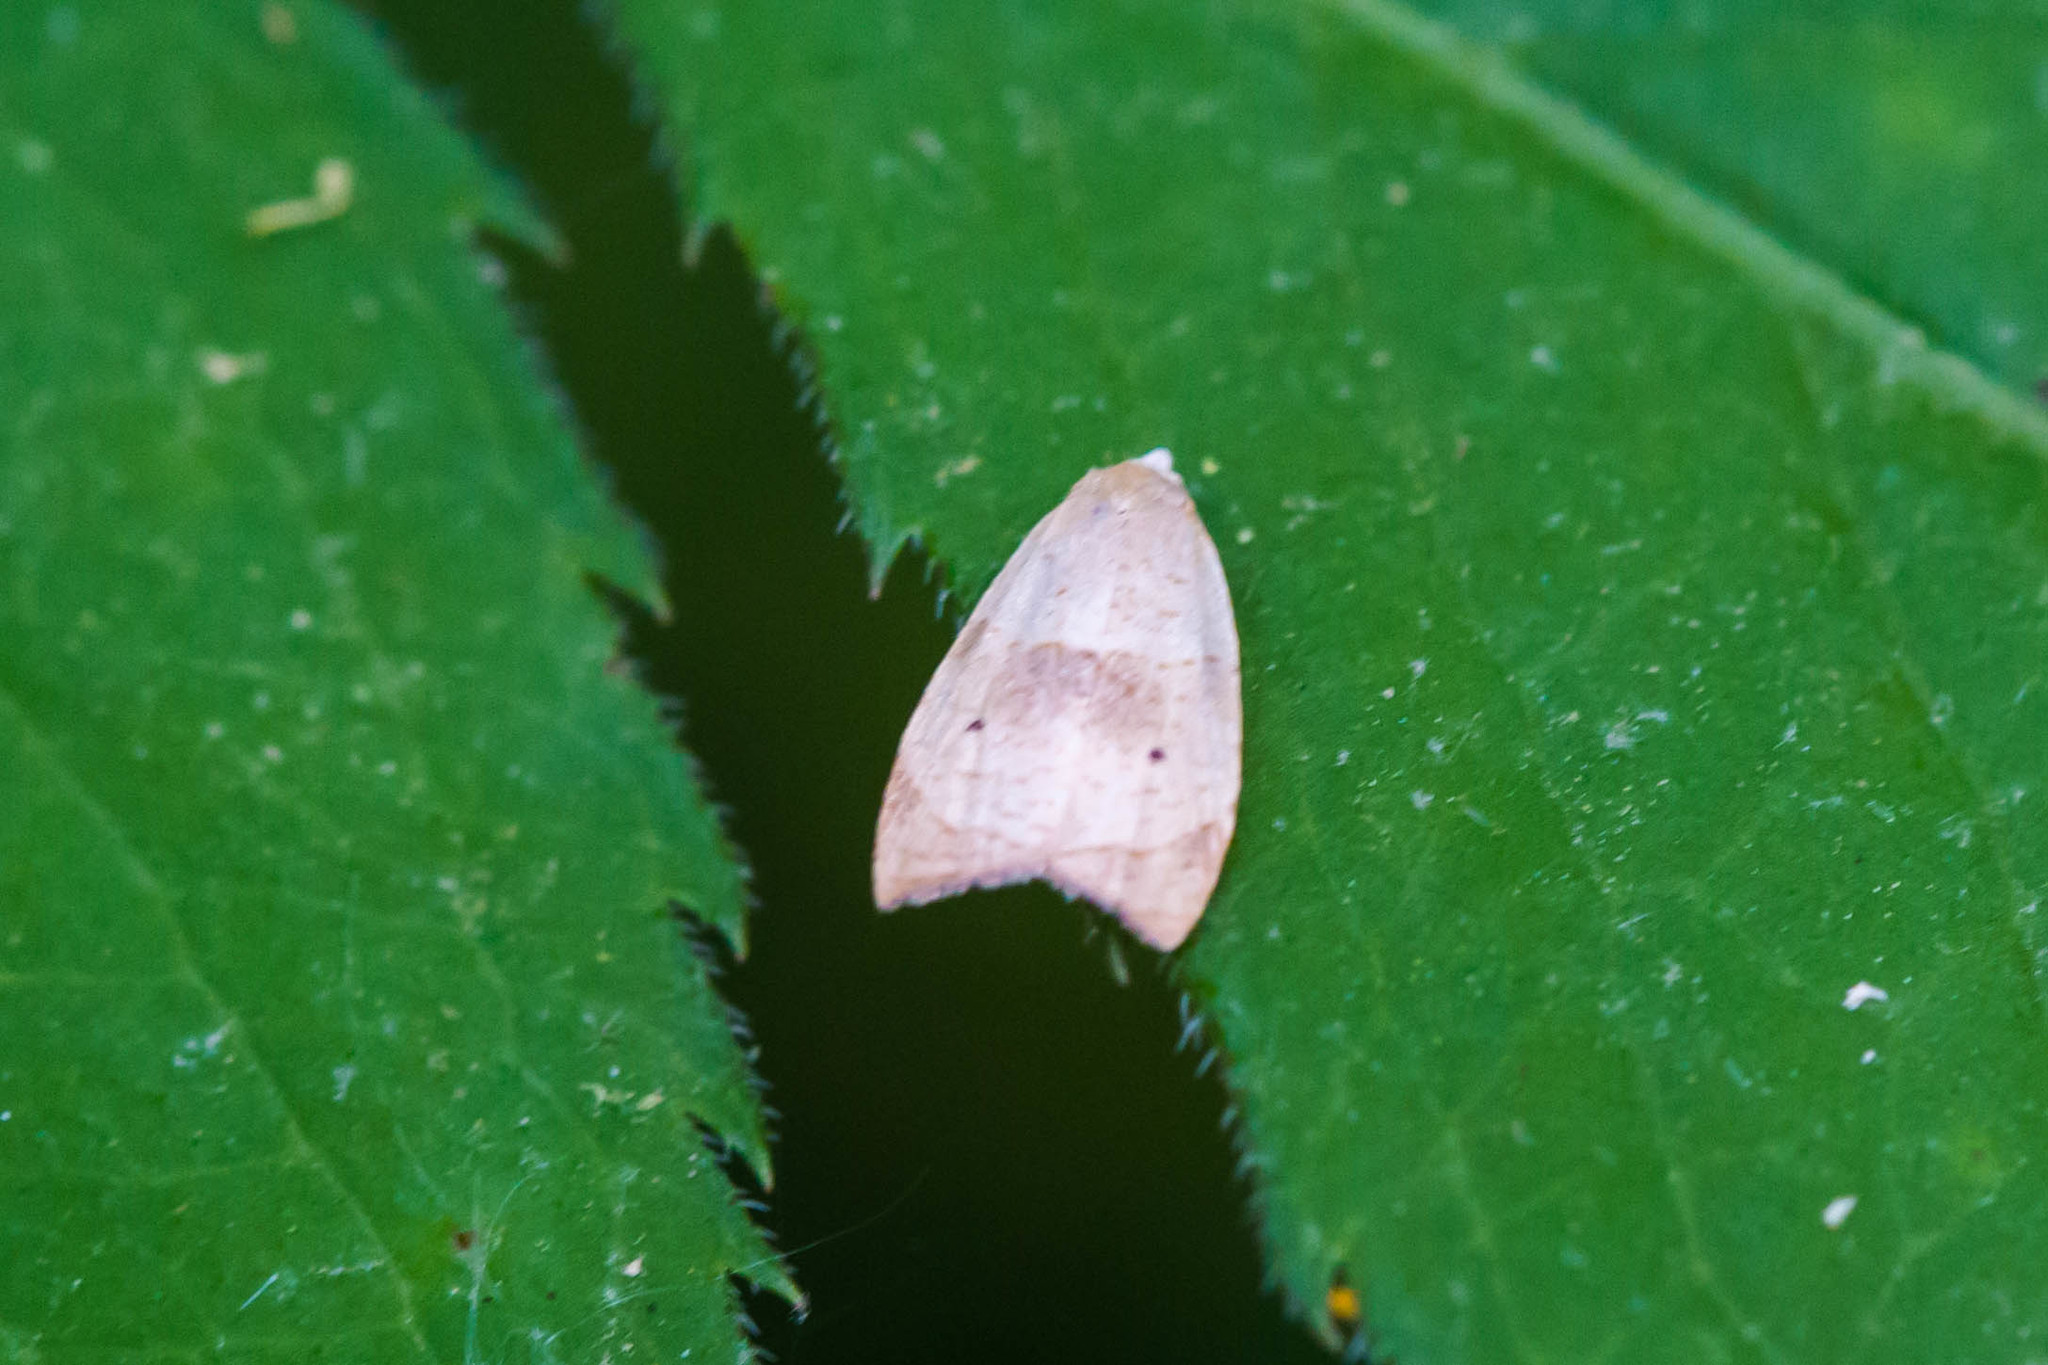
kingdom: Animalia
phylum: Arthropoda
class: Insecta
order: Lepidoptera
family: Tortricidae
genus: Coelostathma
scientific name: Coelostathma discopunctana
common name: Batman moth
